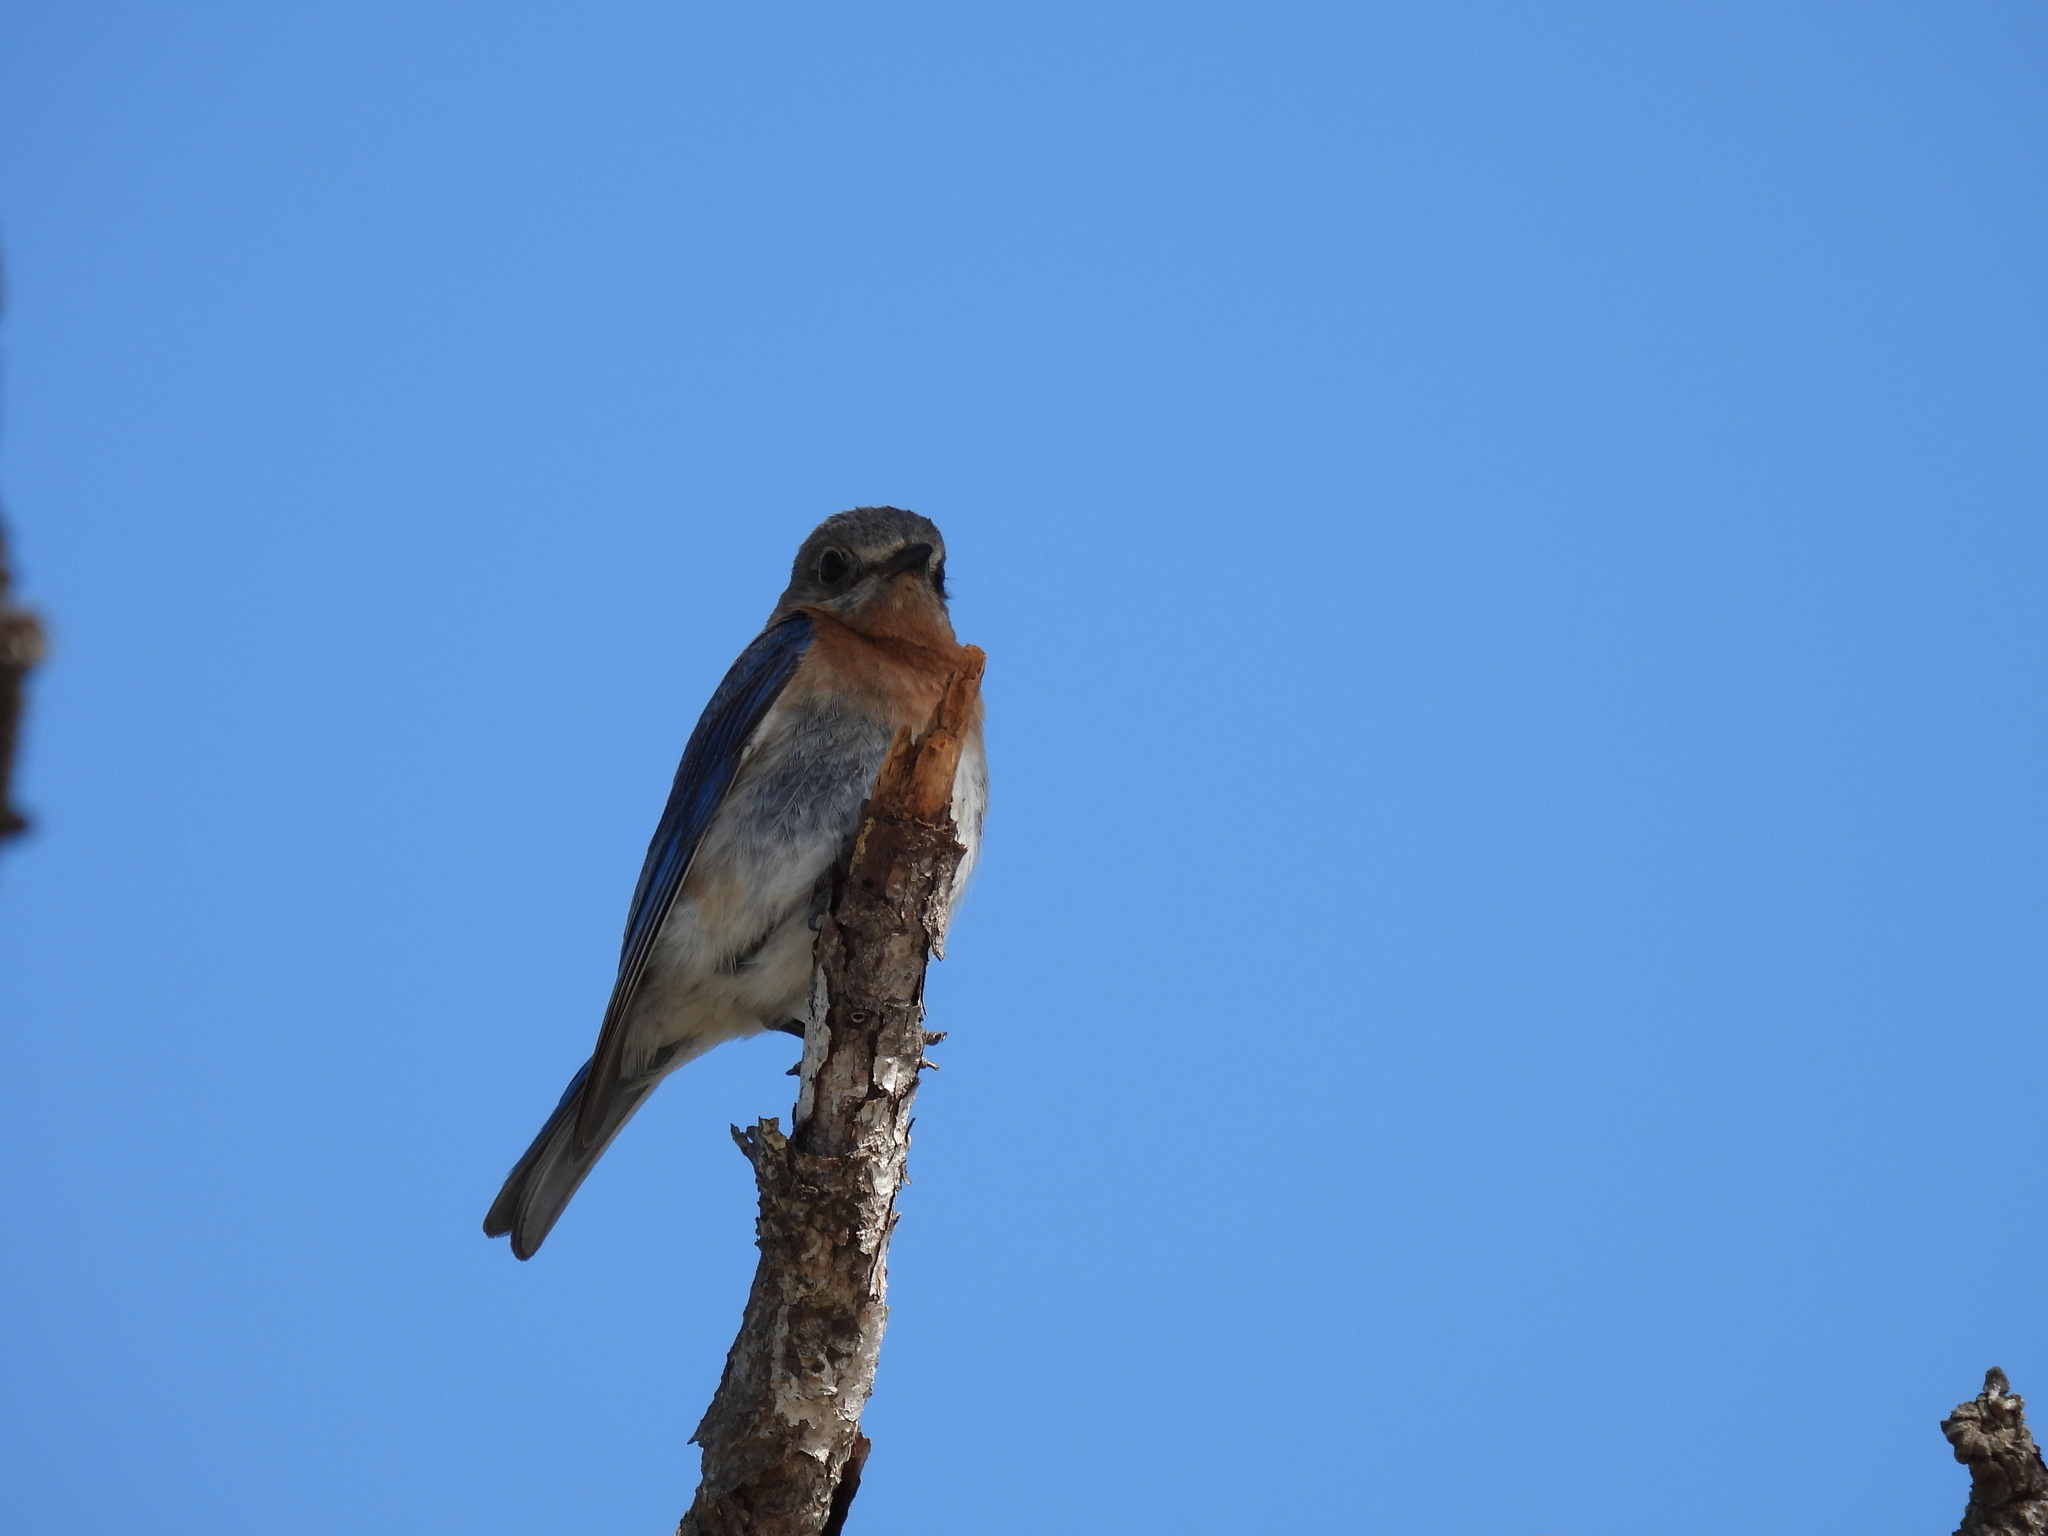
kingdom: Animalia
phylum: Chordata
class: Aves
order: Passeriformes
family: Turdidae
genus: Sialia
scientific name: Sialia sialis
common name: Eastern bluebird
